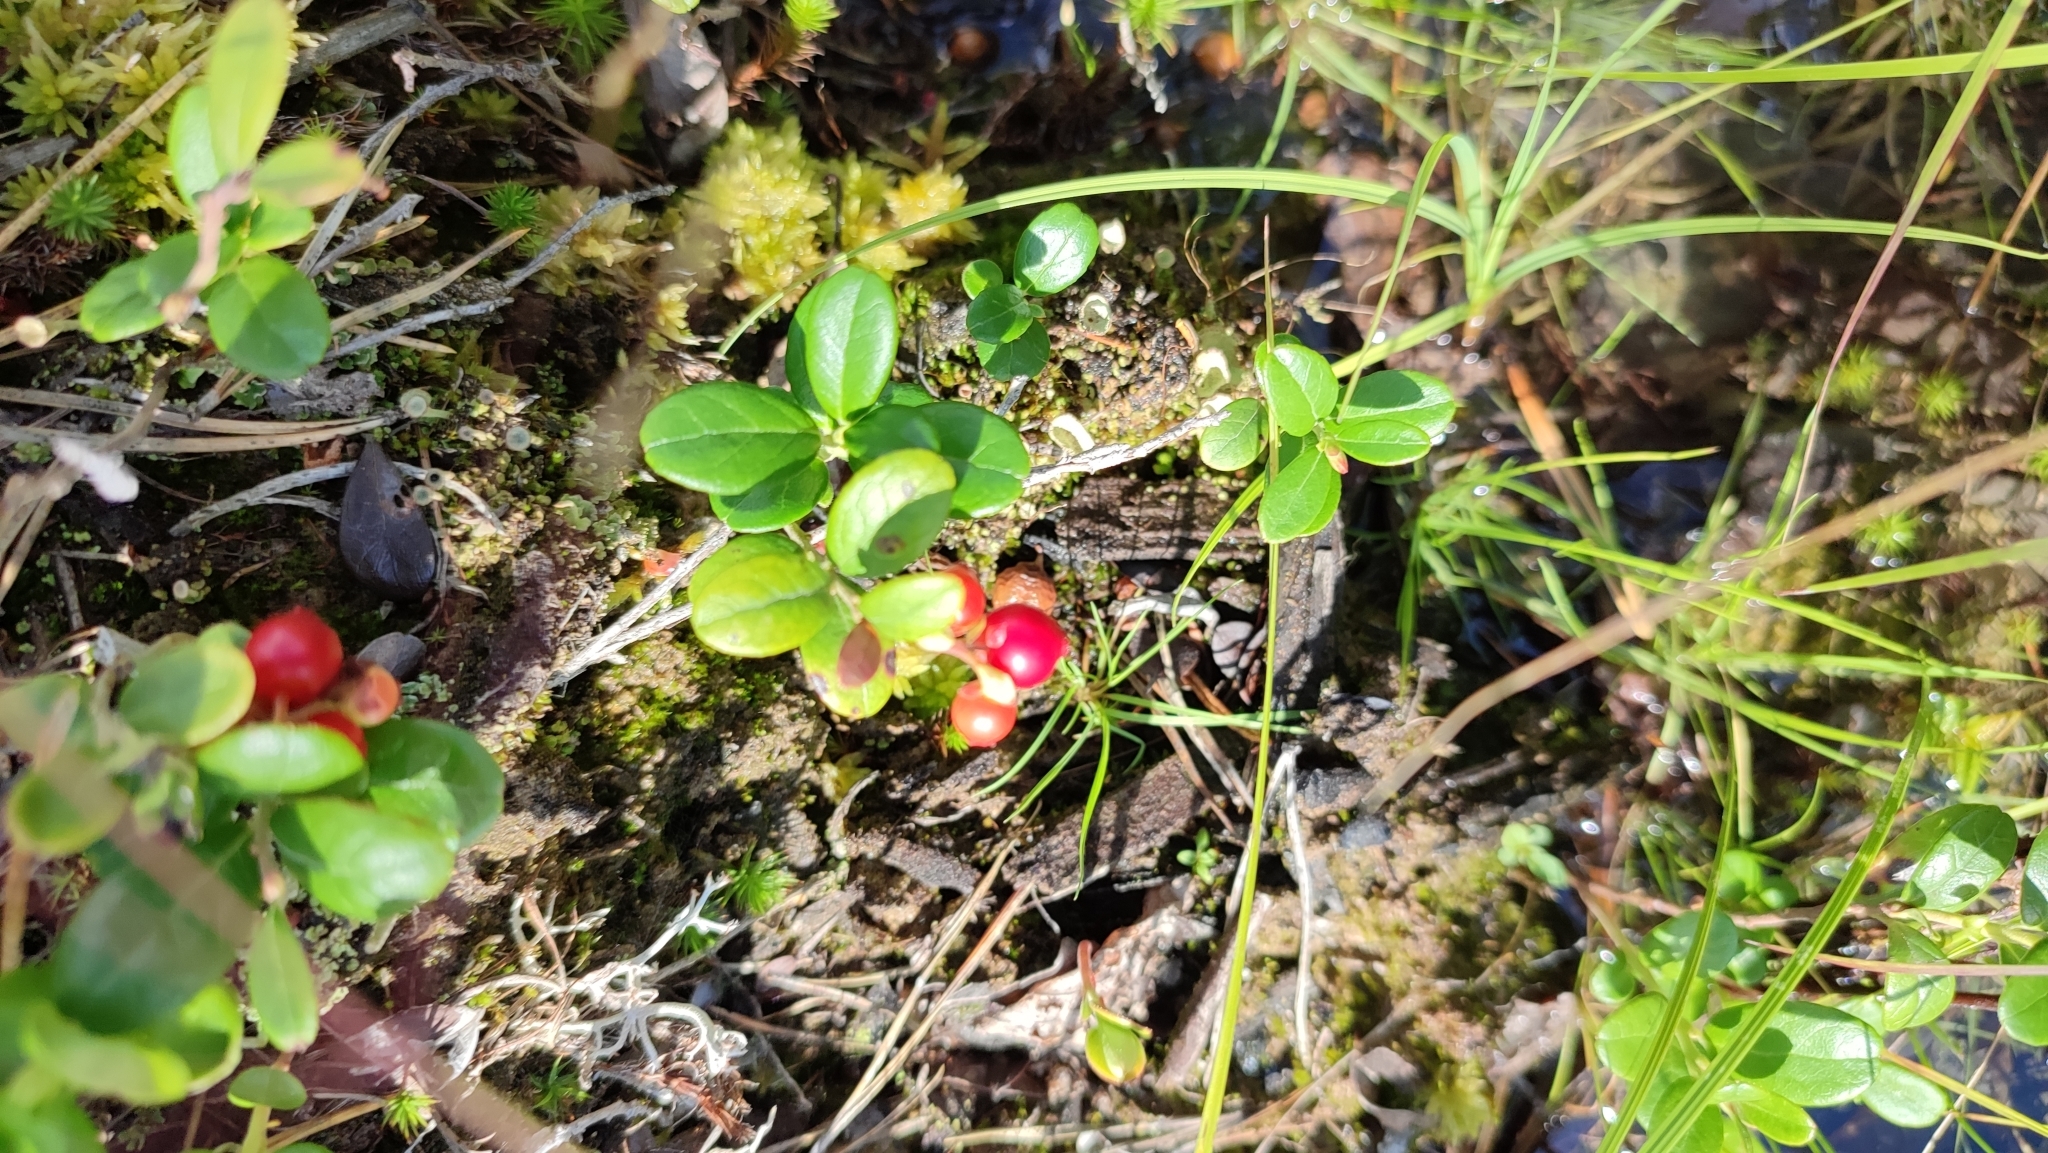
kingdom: Plantae
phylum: Tracheophyta
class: Magnoliopsida
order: Ericales
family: Ericaceae
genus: Vaccinium
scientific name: Vaccinium vitis-idaea
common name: Cowberry
